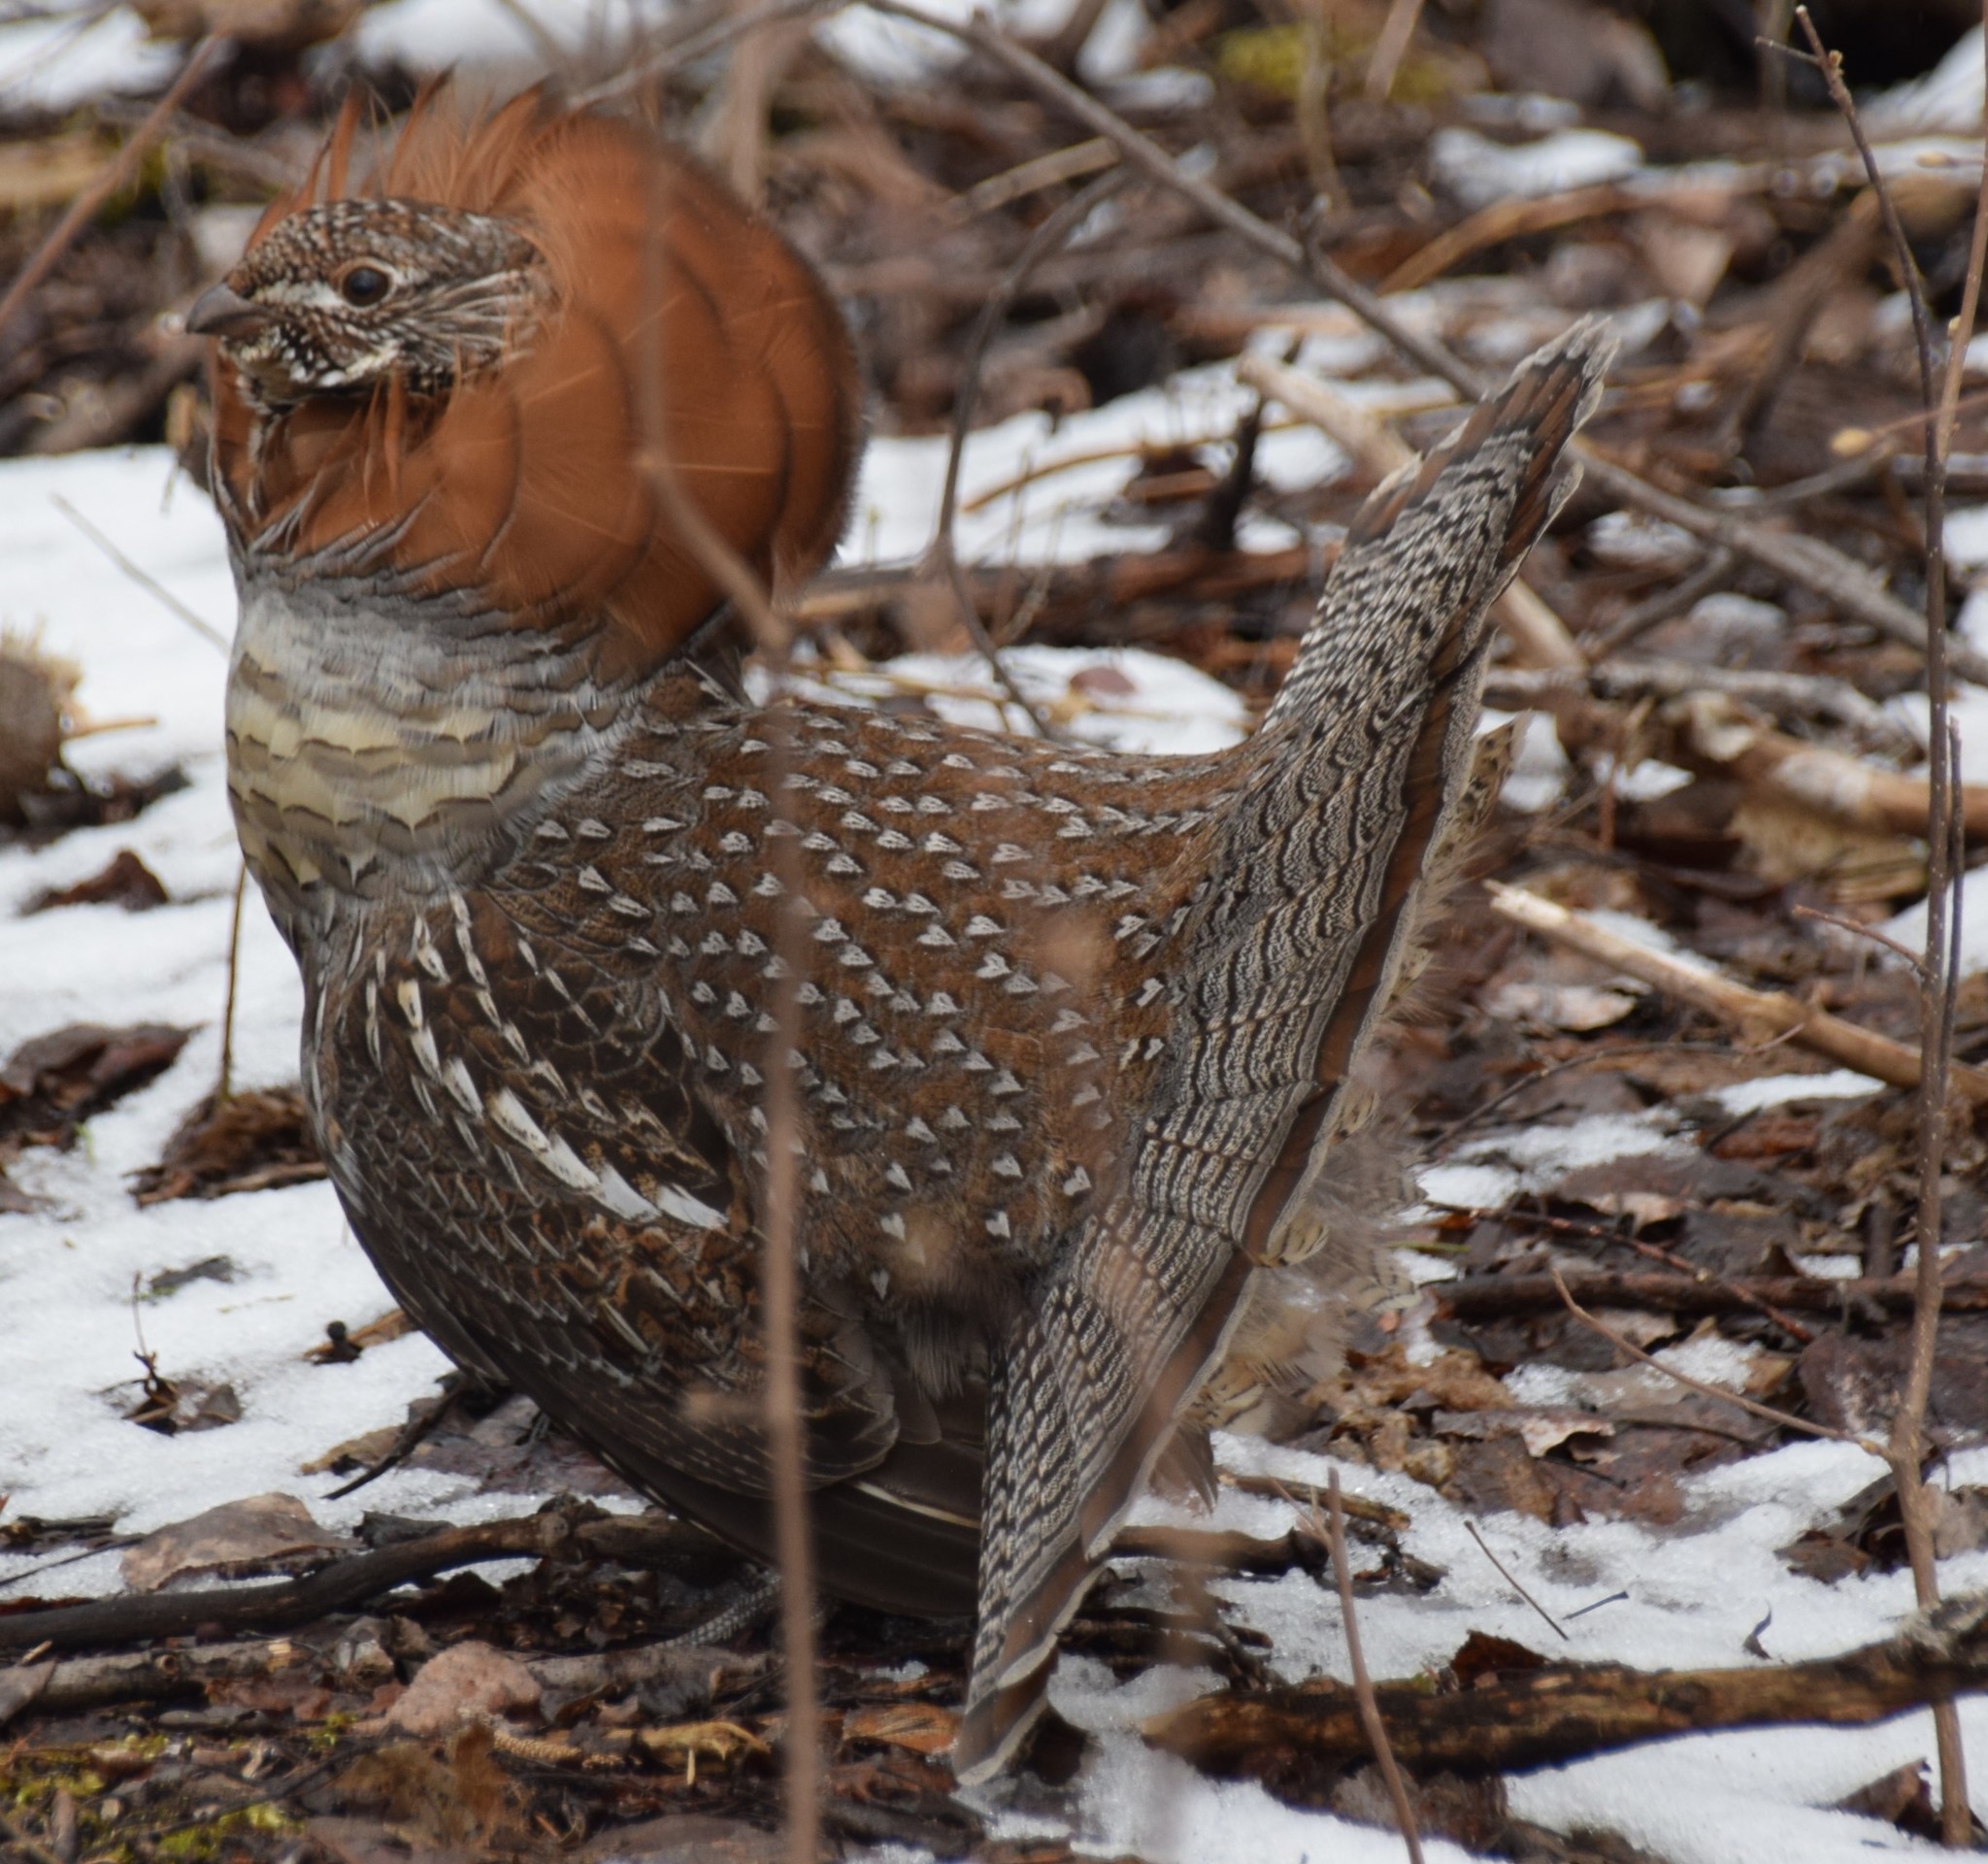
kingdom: Animalia
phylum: Chordata
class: Aves
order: Galliformes
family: Phasianidae
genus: Bonasa
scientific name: Bonasa umbellus
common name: Ruffed grouse
